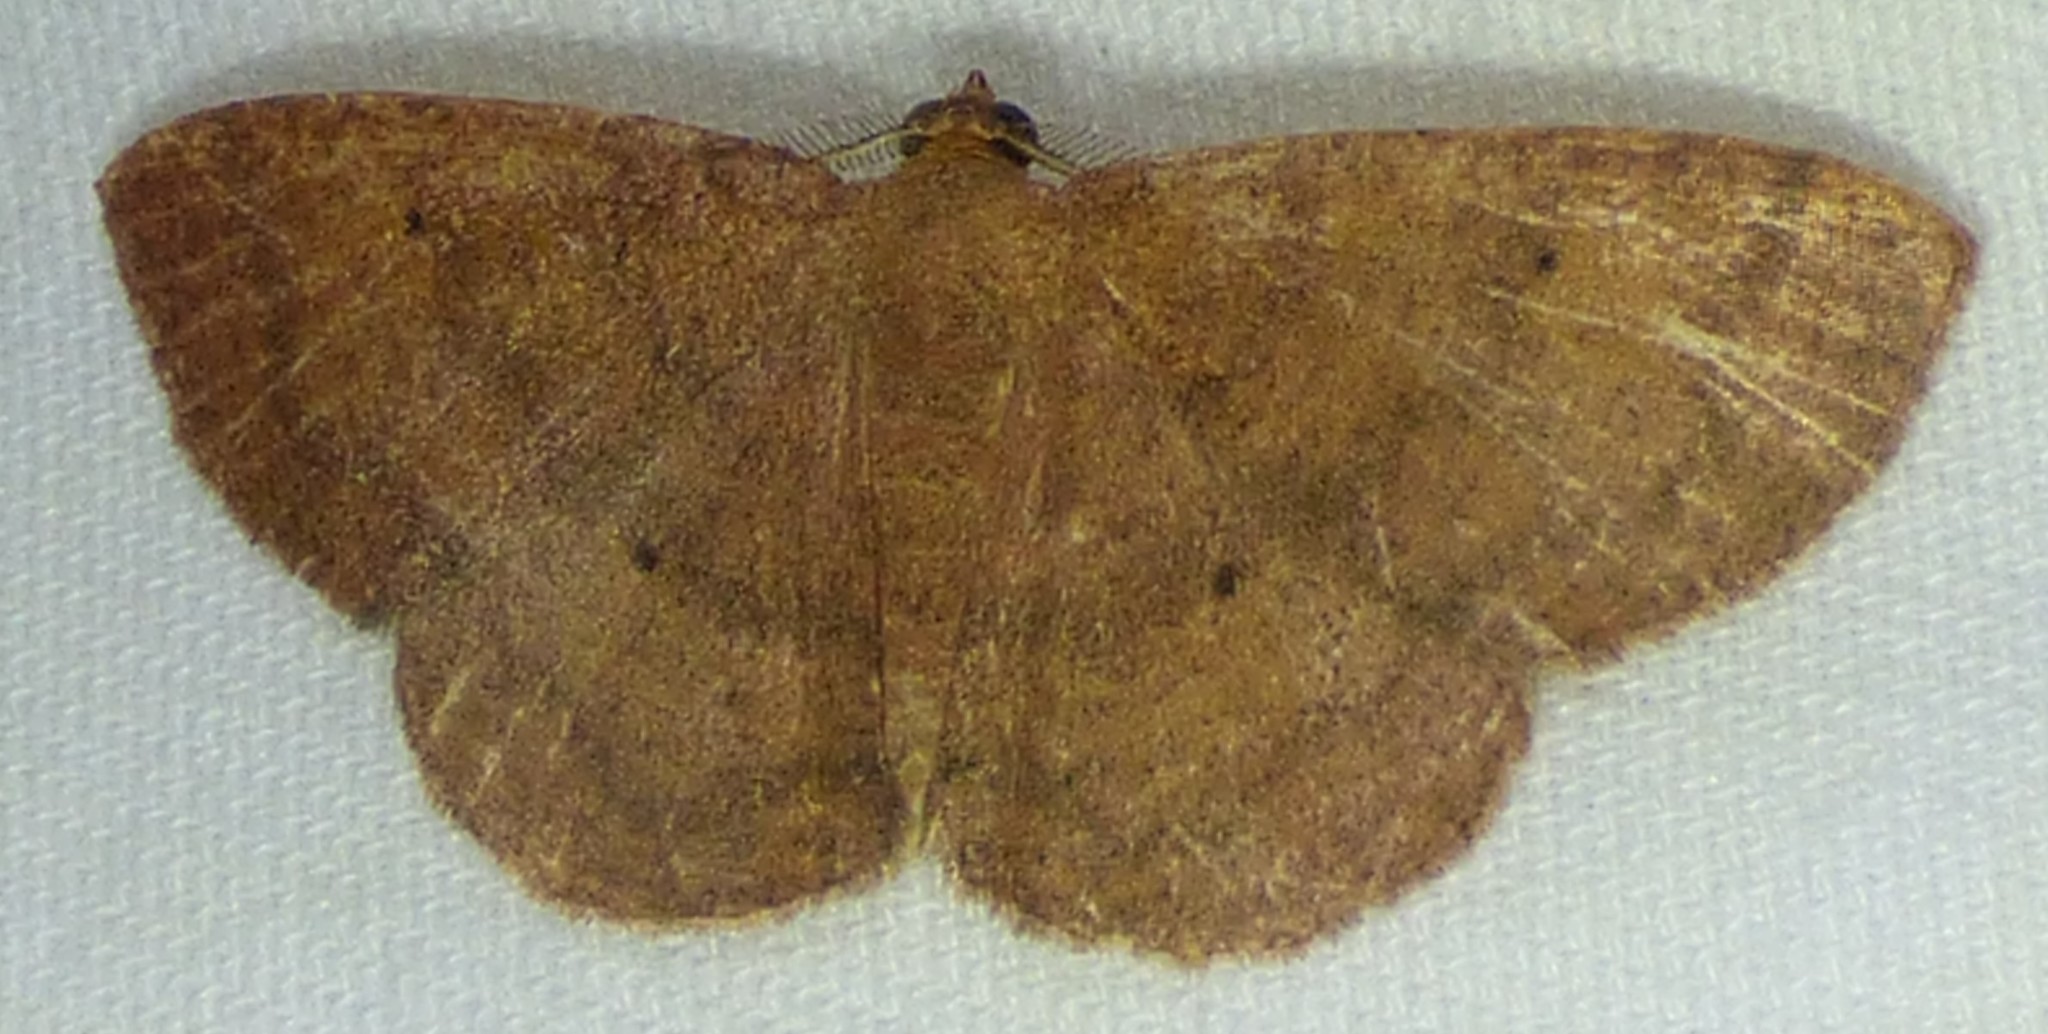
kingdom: Animalia
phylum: Arthropoda
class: Insecta
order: Lepidoptera
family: Geometridae
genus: Ilexia
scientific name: Ilexia intractata
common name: Black-dotted ruddy moth
